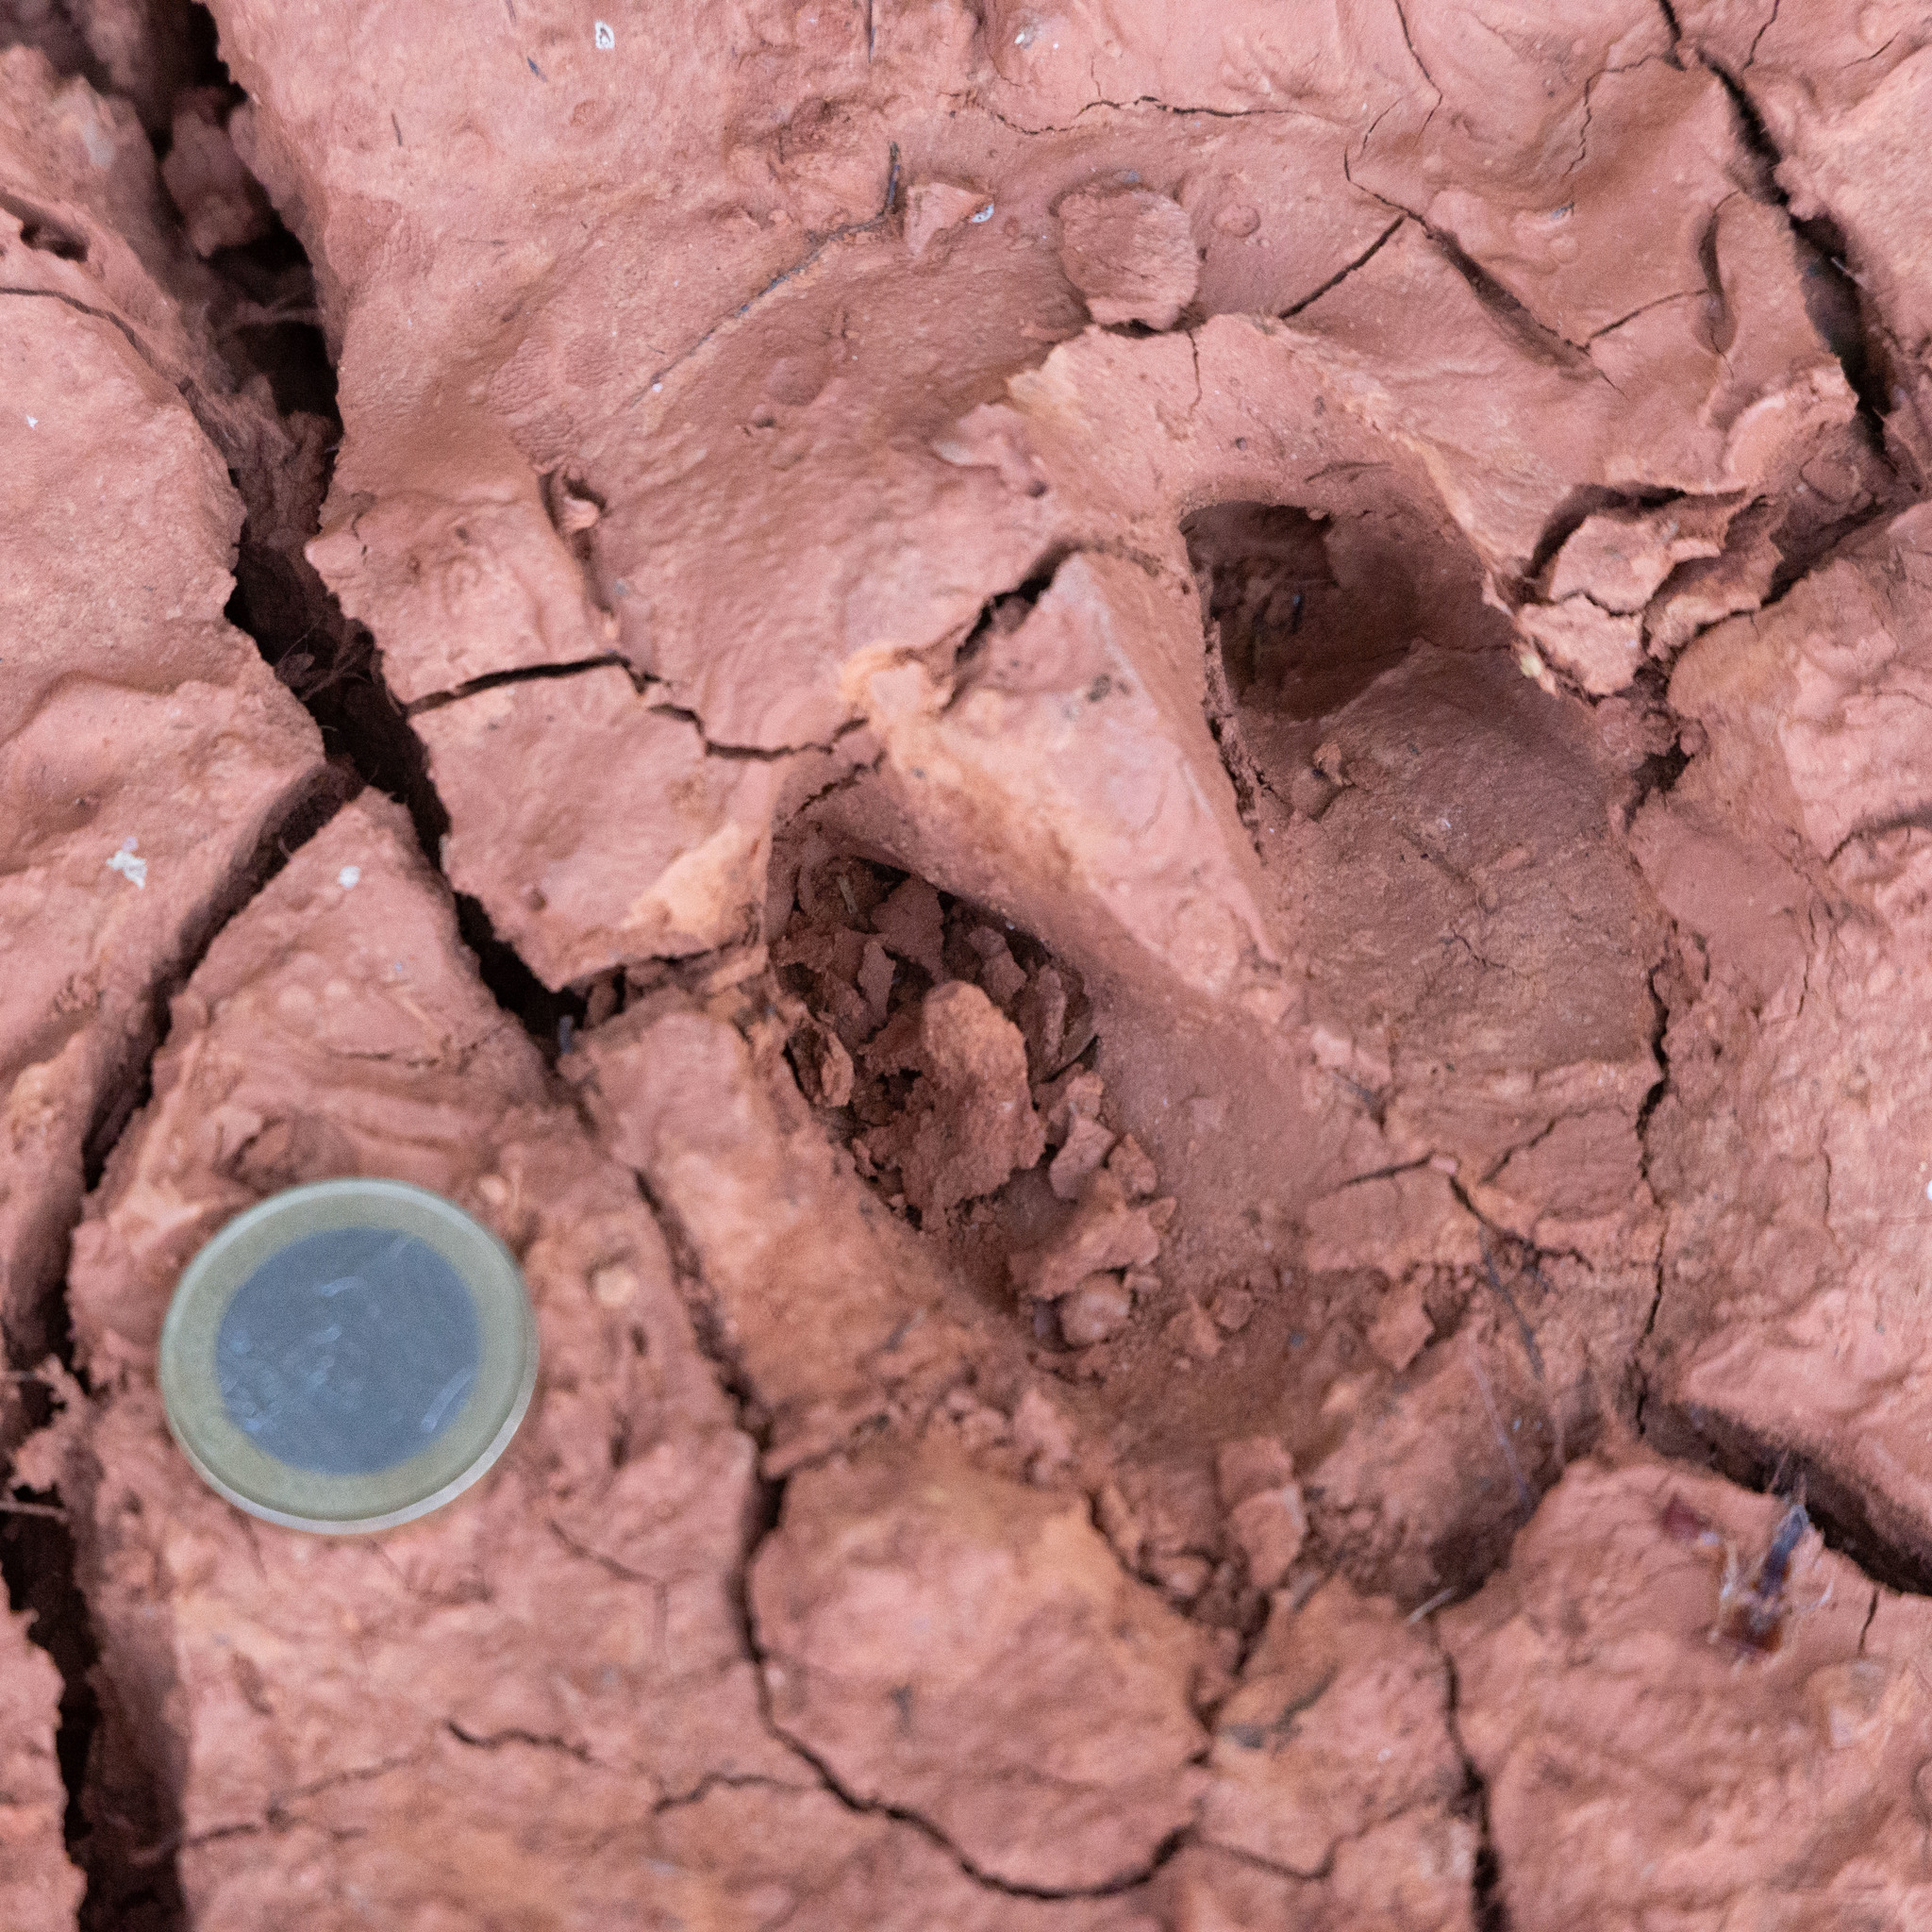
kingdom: Animalia
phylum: Chordata
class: Mammalia
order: Artiodactyla
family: Suidae
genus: Sus
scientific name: Sus scrofa
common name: Wild boar
